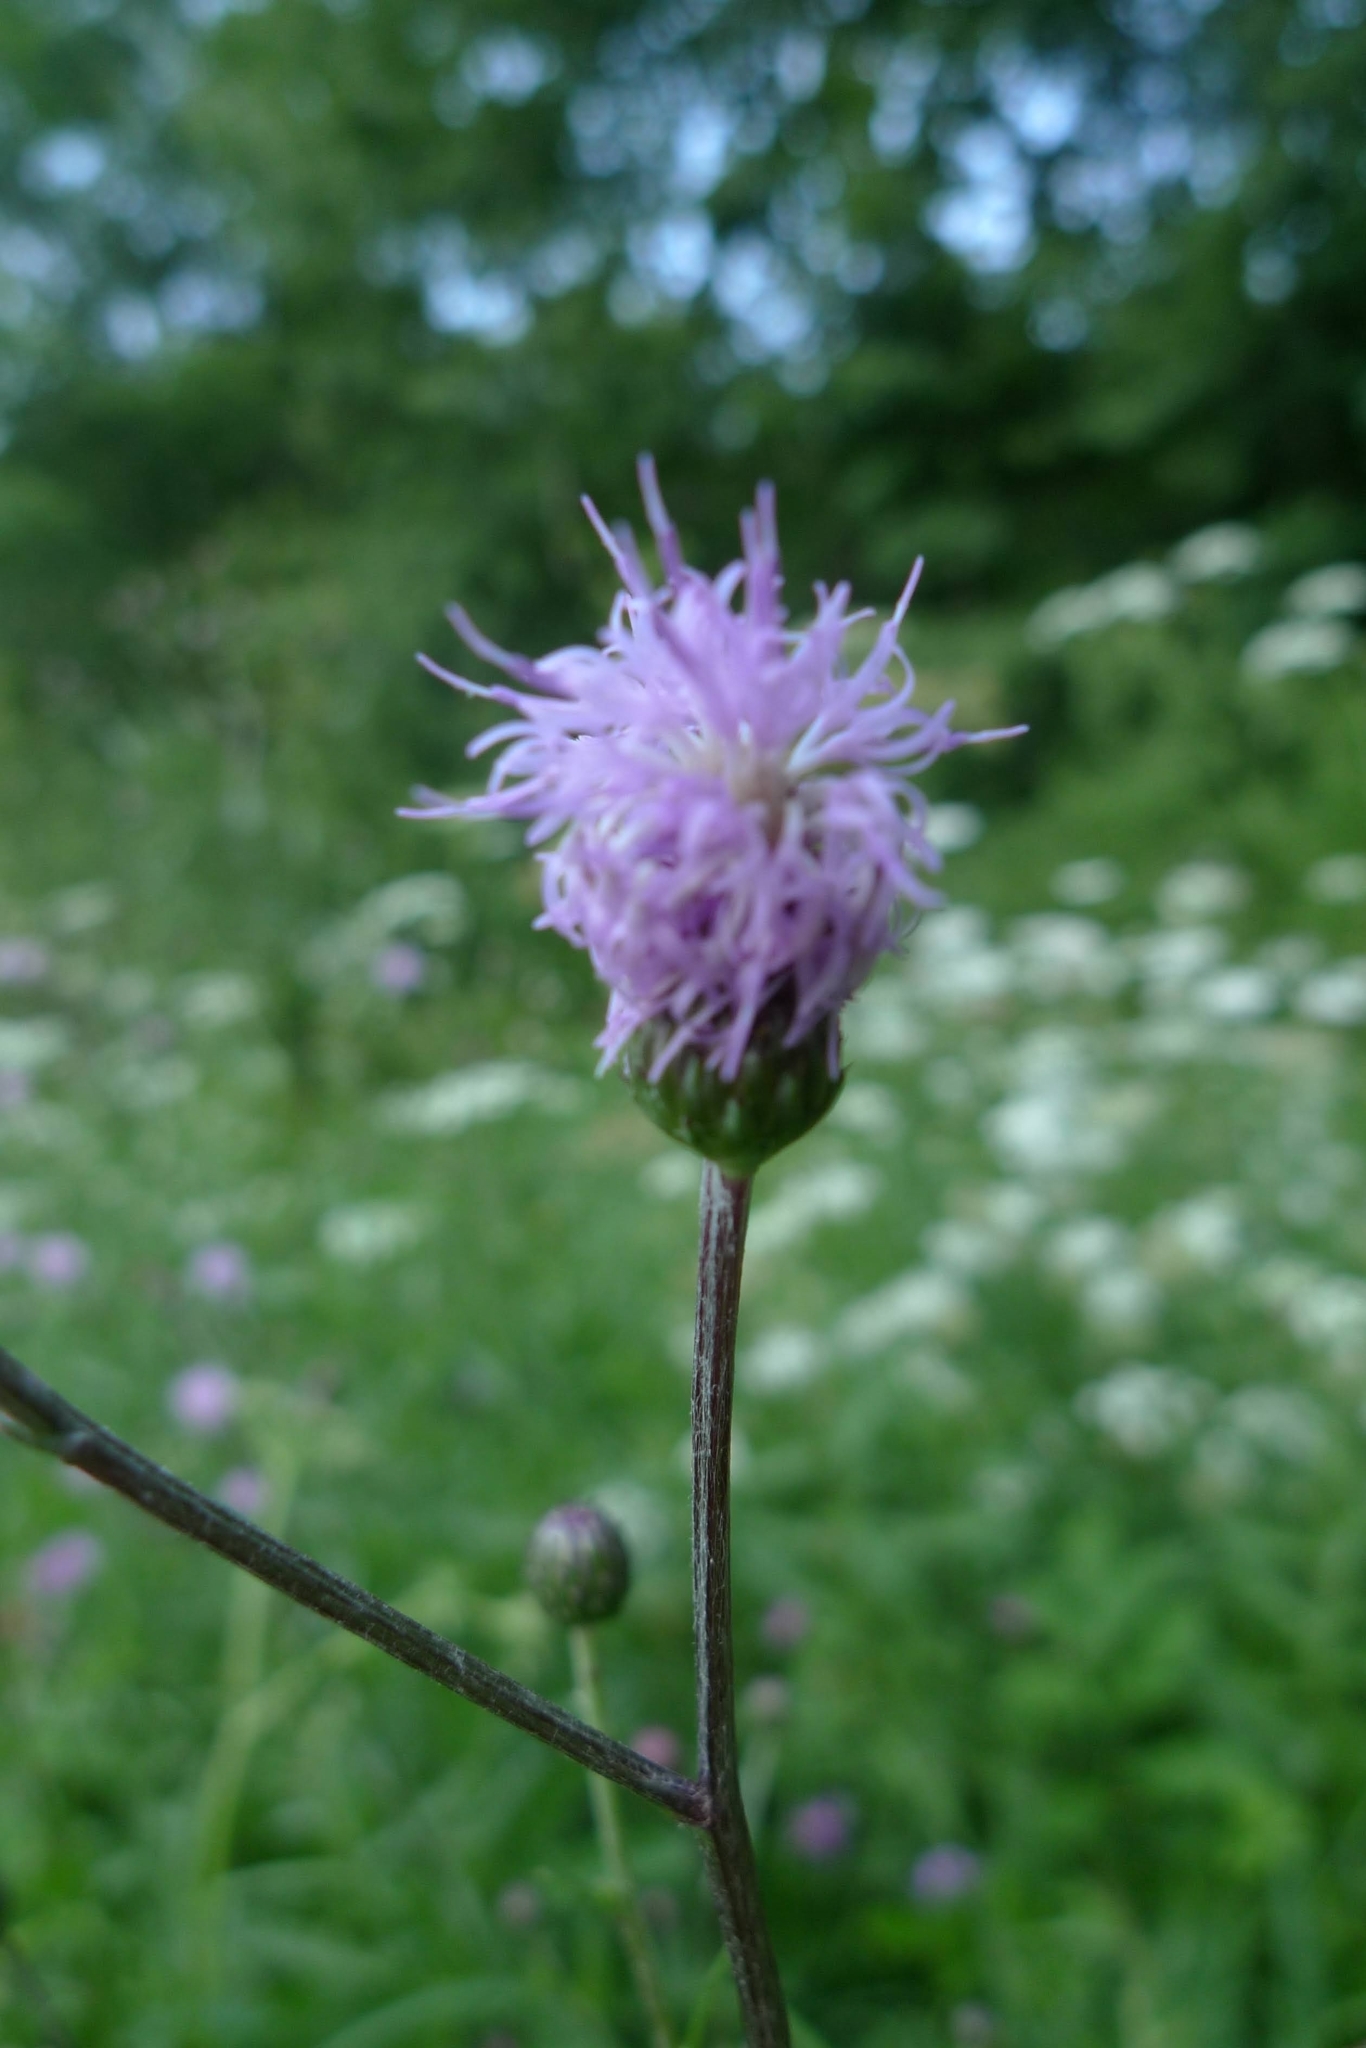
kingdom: Plantae
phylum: Tracheophyta
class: Magnoliopsida
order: Asterales
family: Asteraceae
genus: Cirsium
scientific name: Cirsium arvense
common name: Creeping thistle
